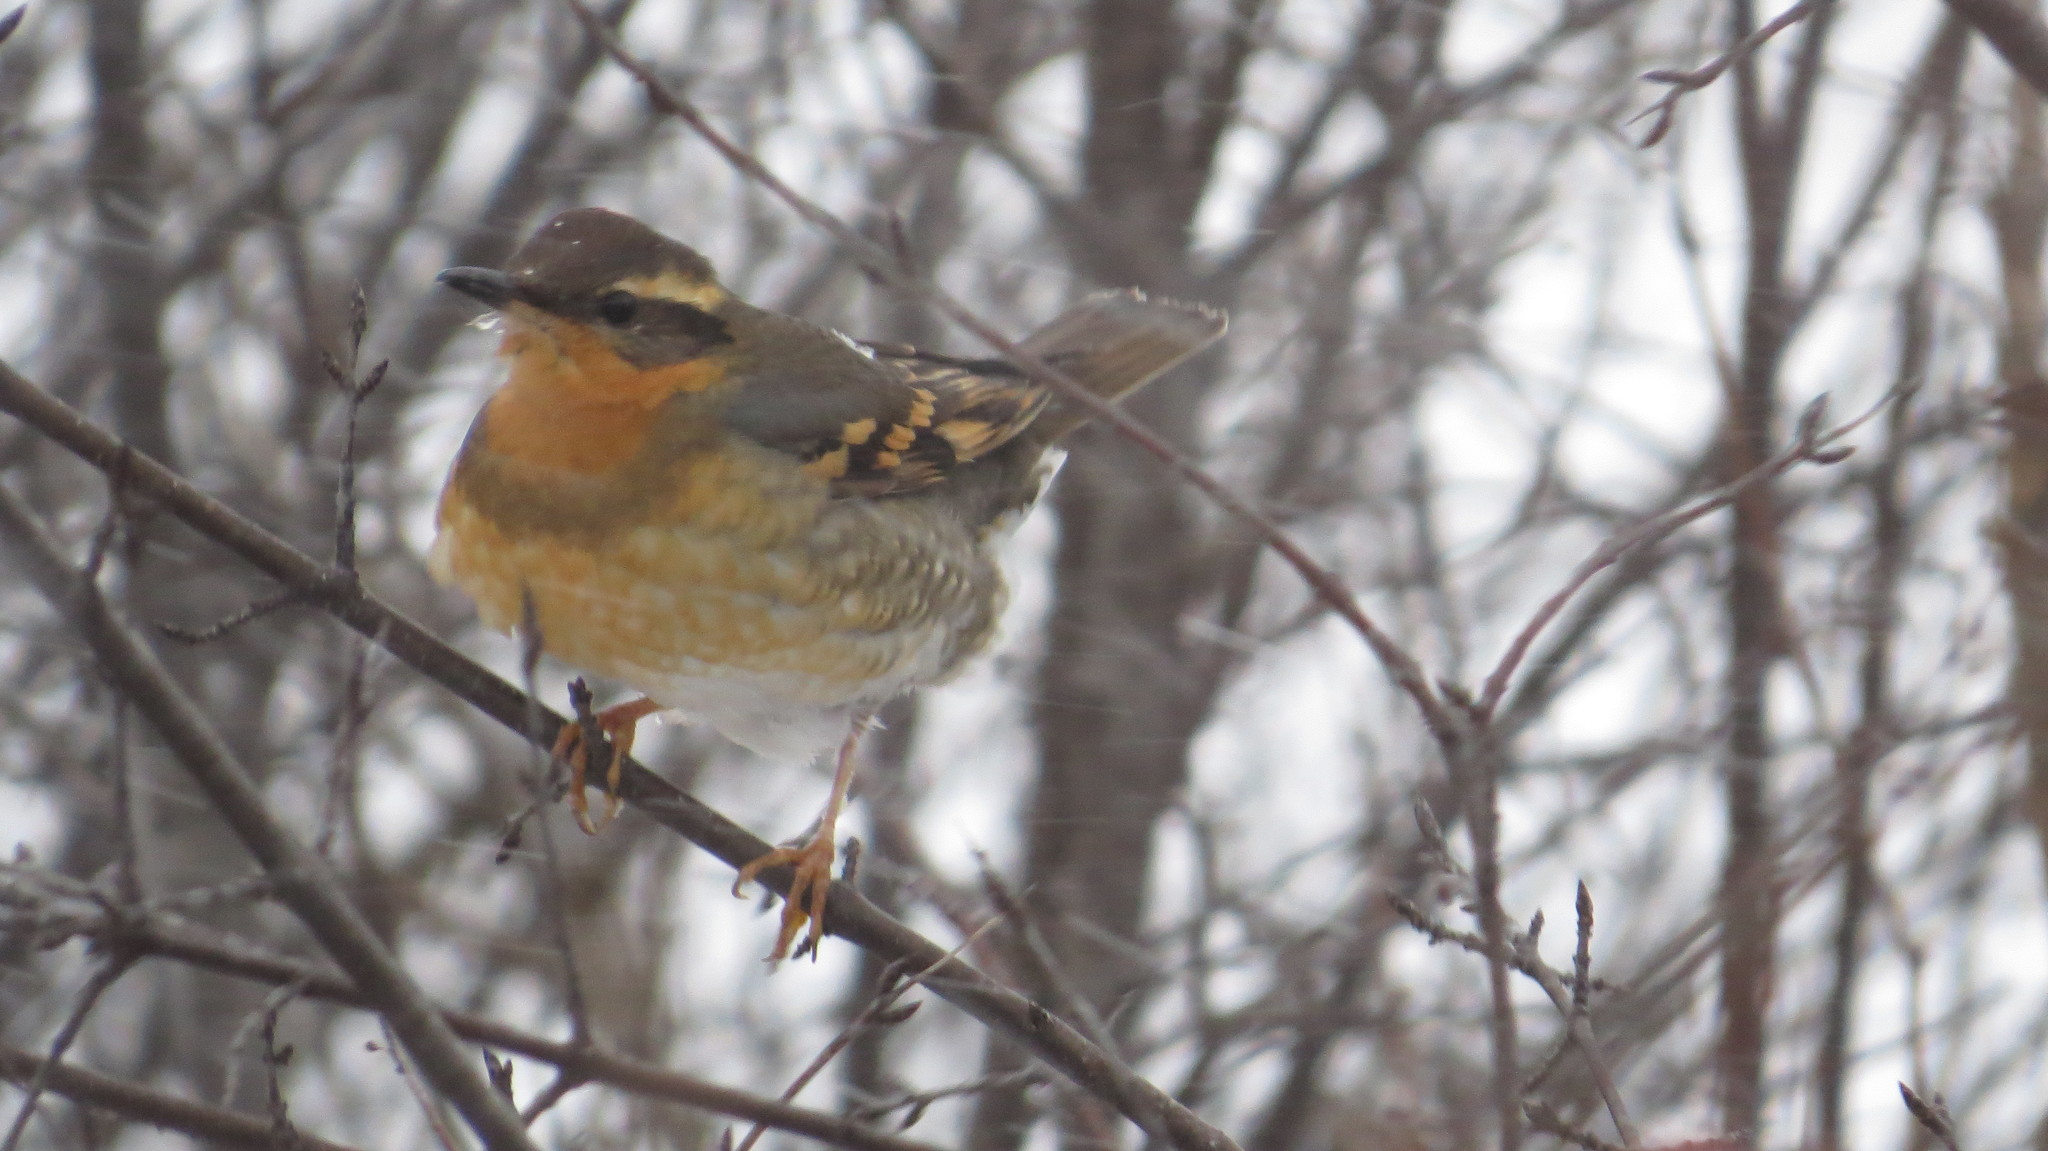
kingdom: Animalia
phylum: Chordata
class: Aves
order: Passeriformes
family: Turdidae
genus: Ixoreus
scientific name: Ixoreus naevius
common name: Varied thrush
